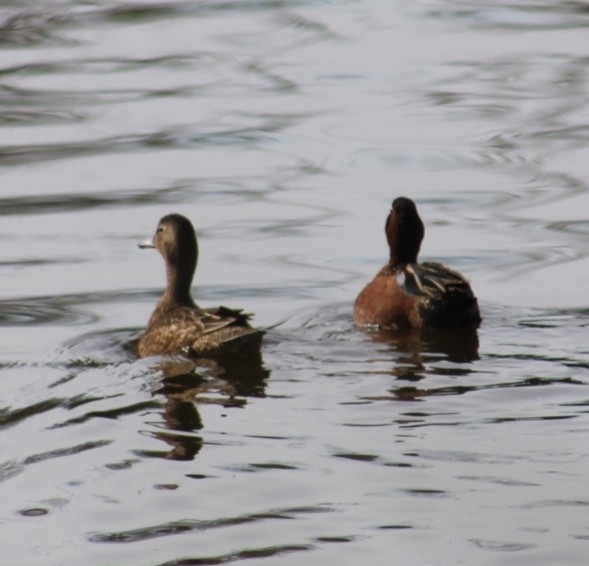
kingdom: Animalia
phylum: Chordata
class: Aves
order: Anseriformes
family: Anatidae
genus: Spatula
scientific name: Spatula cyanoptera
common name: Cinnamon teal
